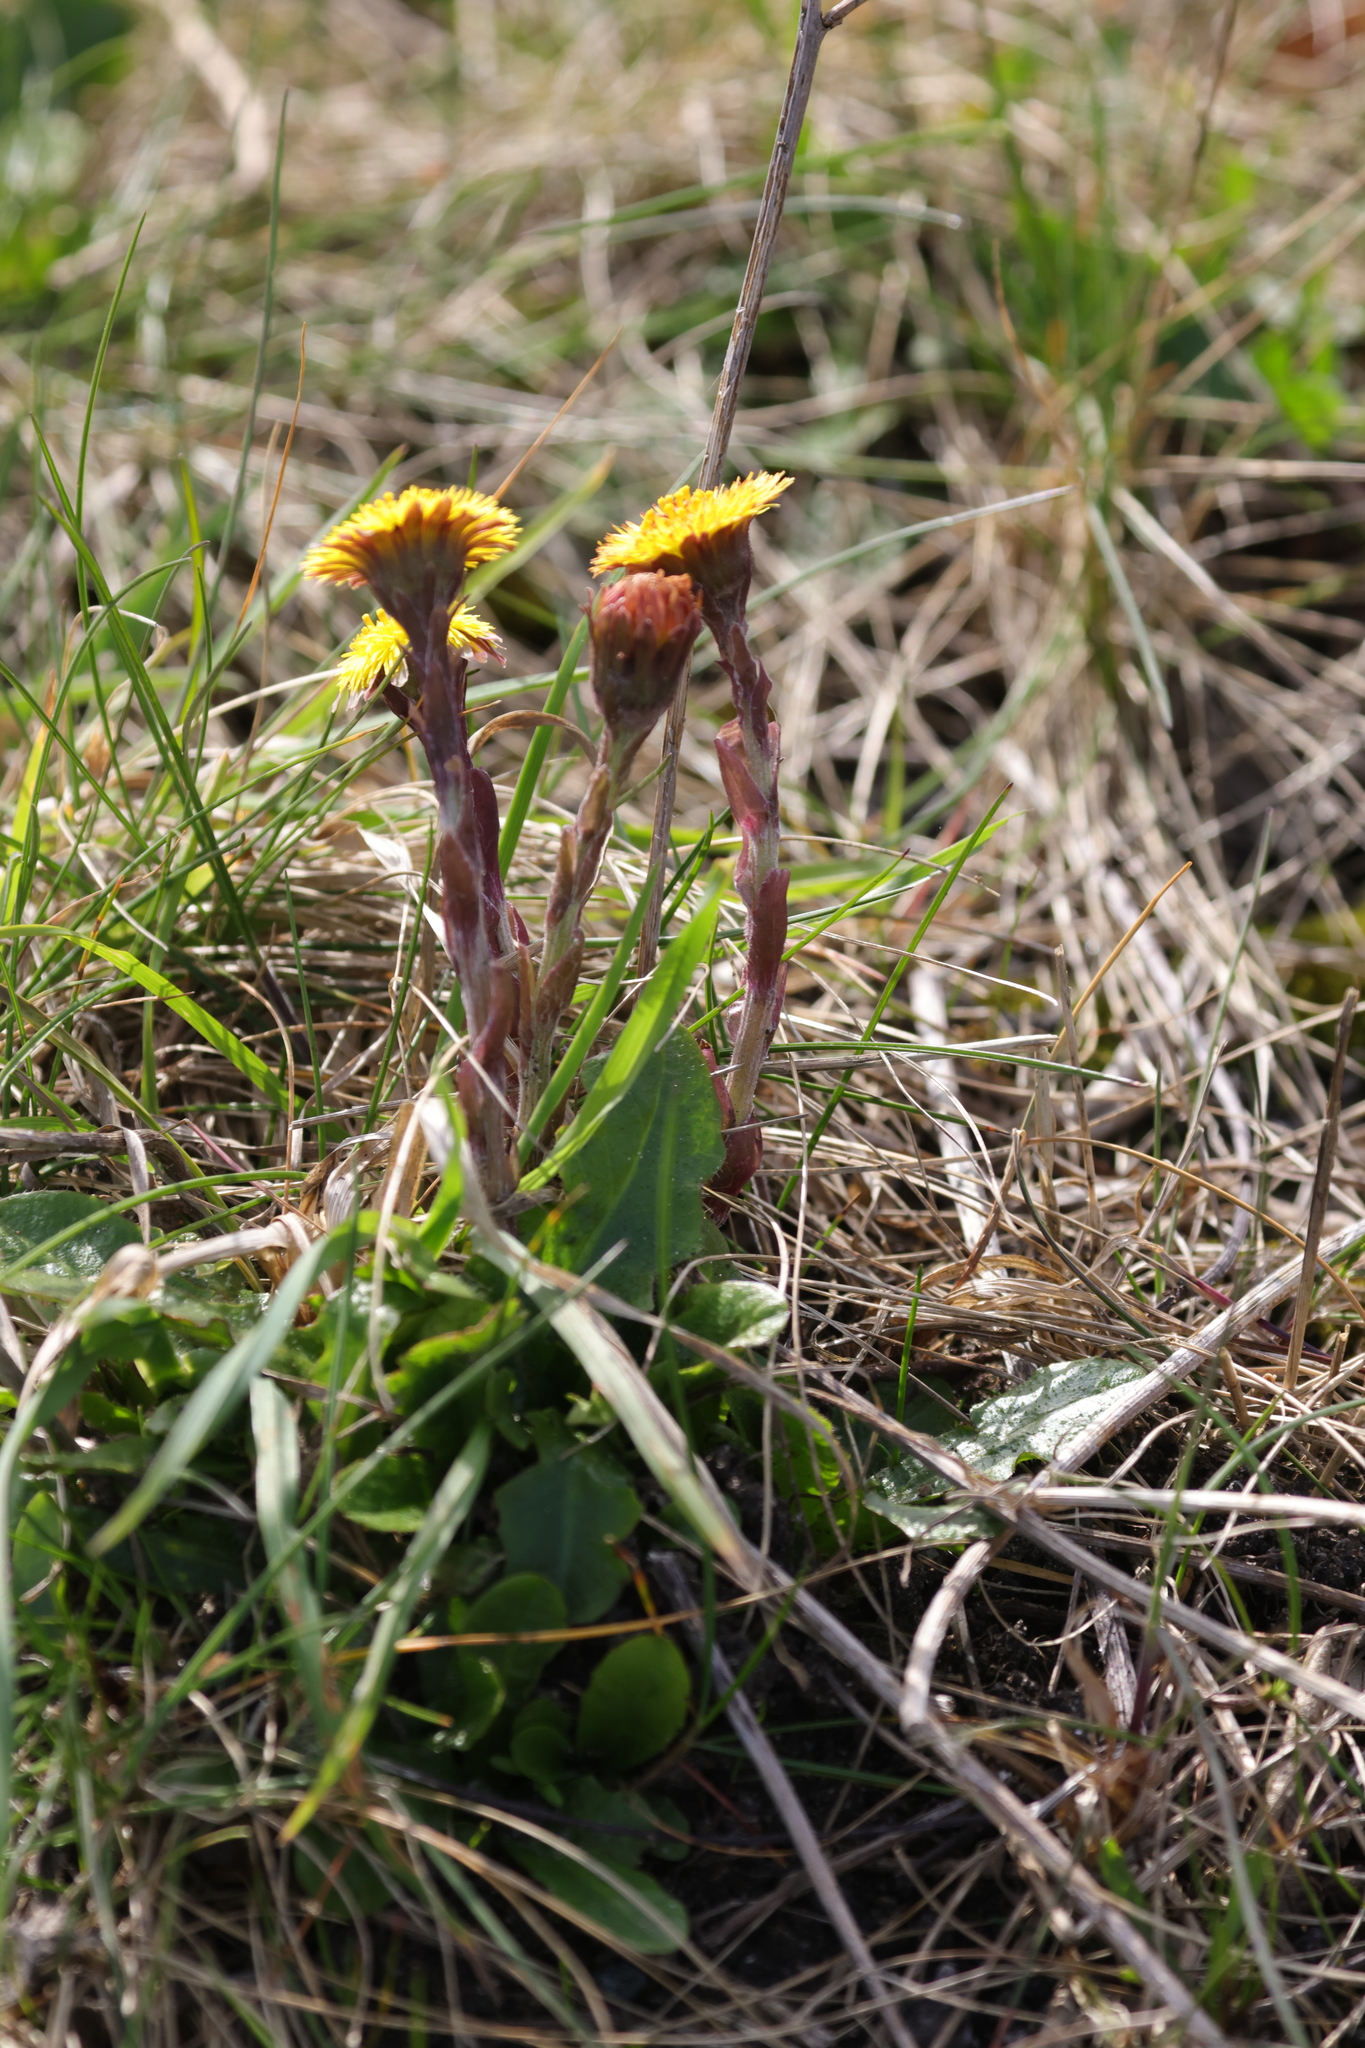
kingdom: Plantae
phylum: Tracheophyta
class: Magnoliopsida
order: Asterales
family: Asteraceae
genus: Tussilago
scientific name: Tussilago farfara
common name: Coltsfoot
